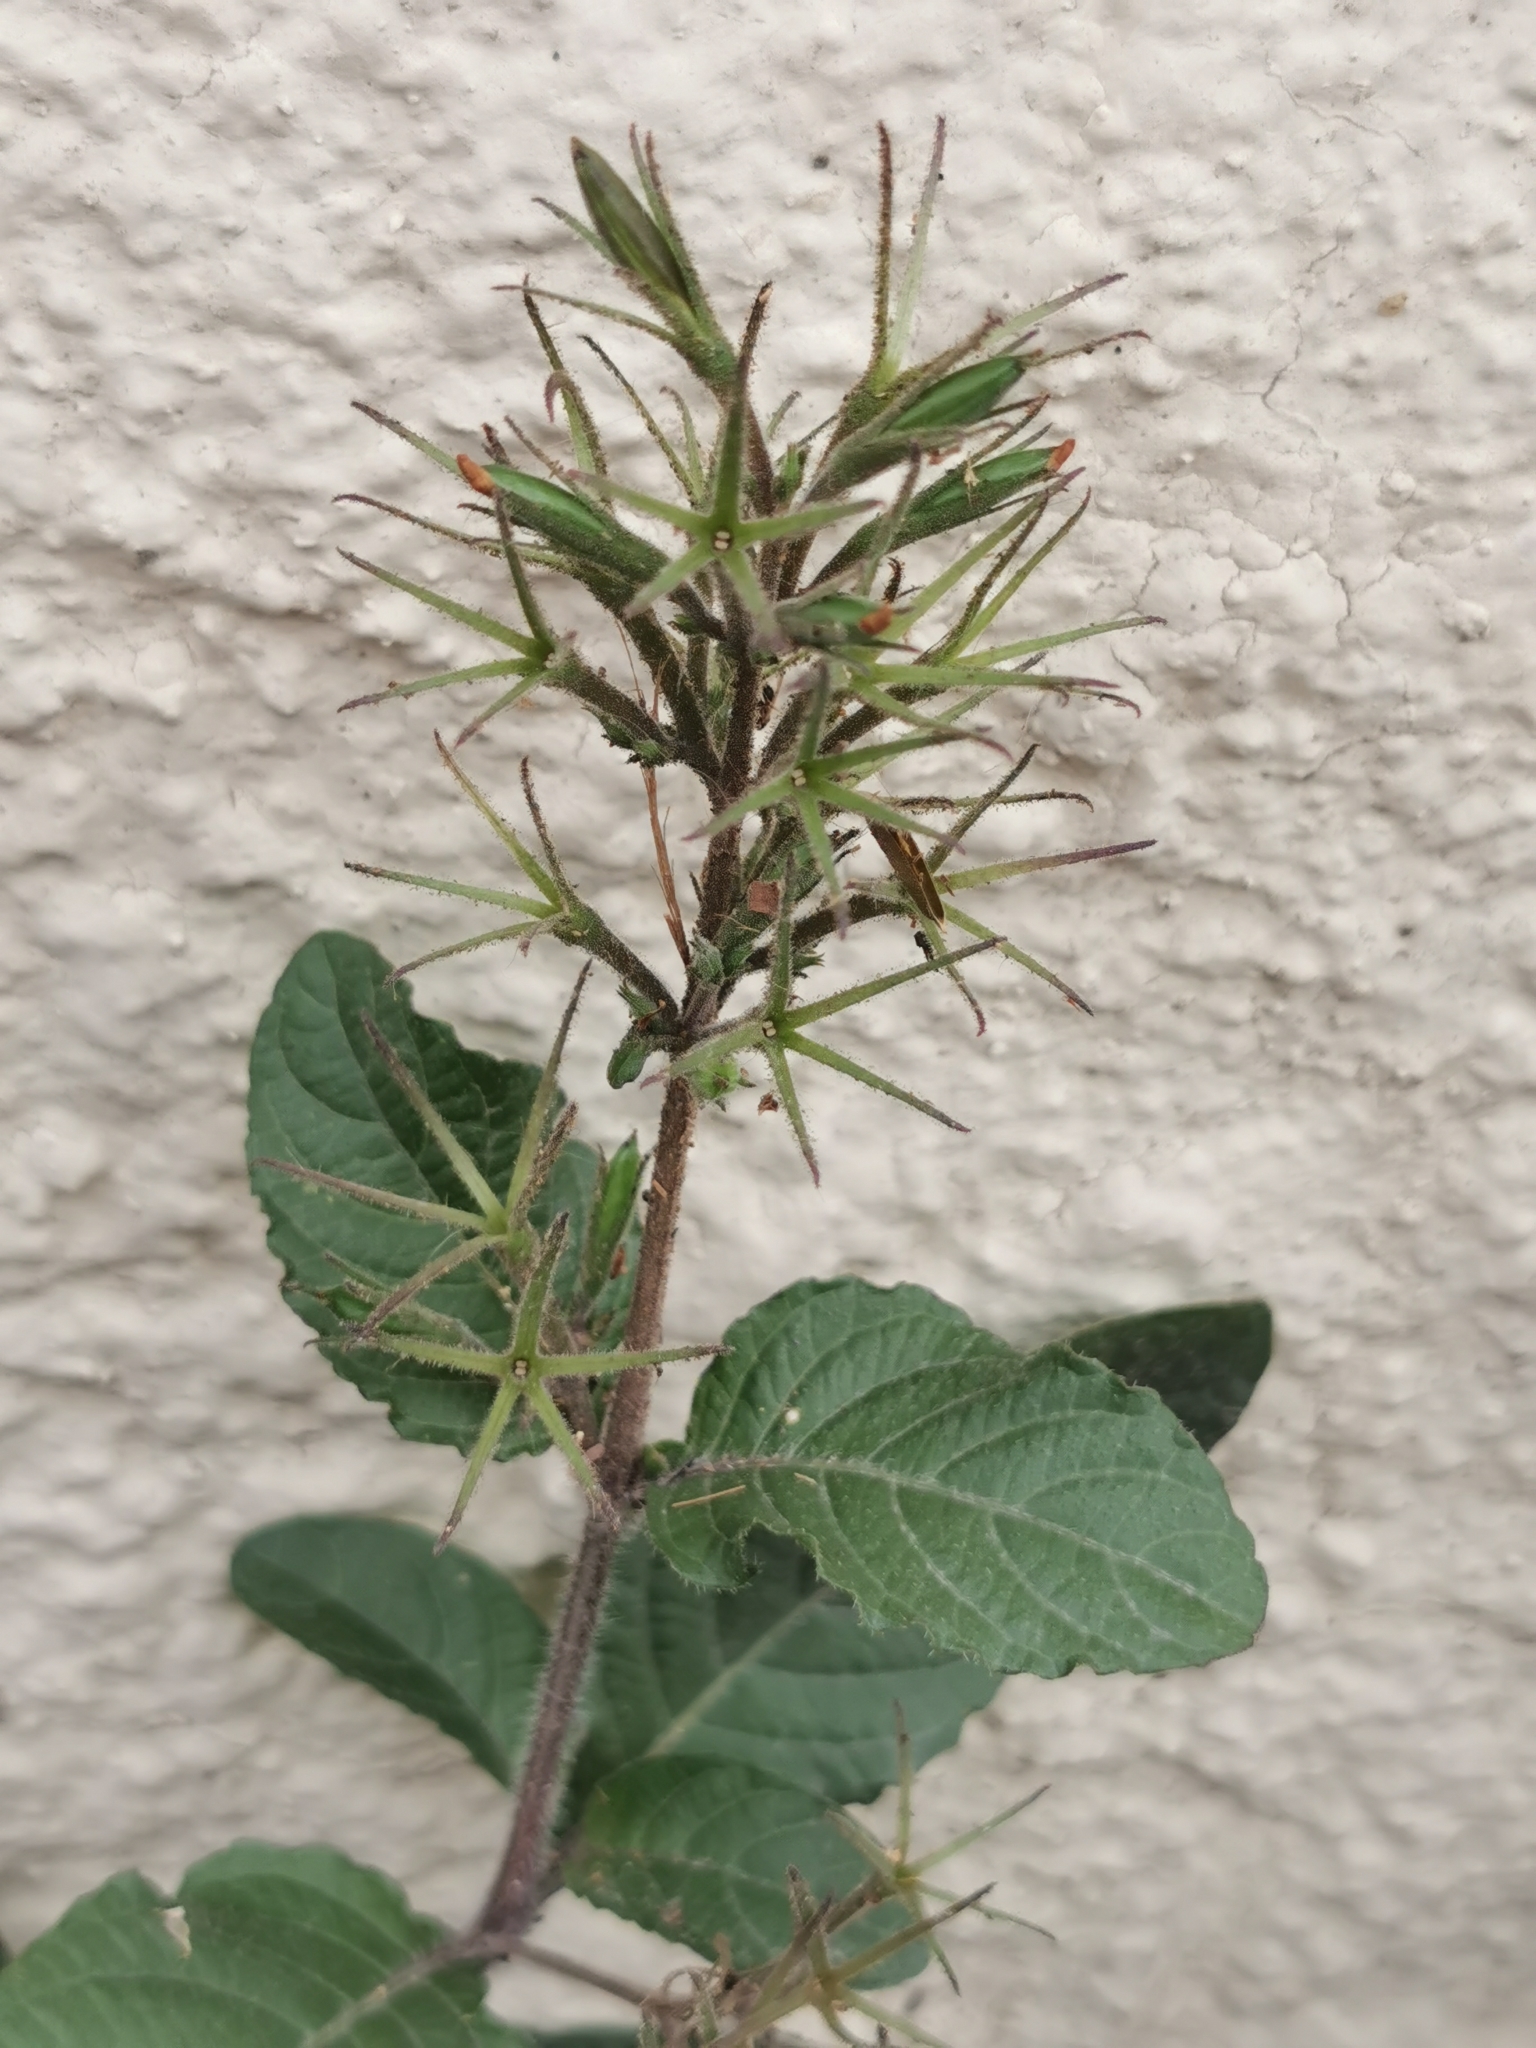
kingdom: Plantae
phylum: Tracheophyta
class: Magnoliopsida
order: Lamiales
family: Acanthaceae
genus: Ruellia
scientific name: Ruellia ciliatiflora
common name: Hairyflower wild petunia
